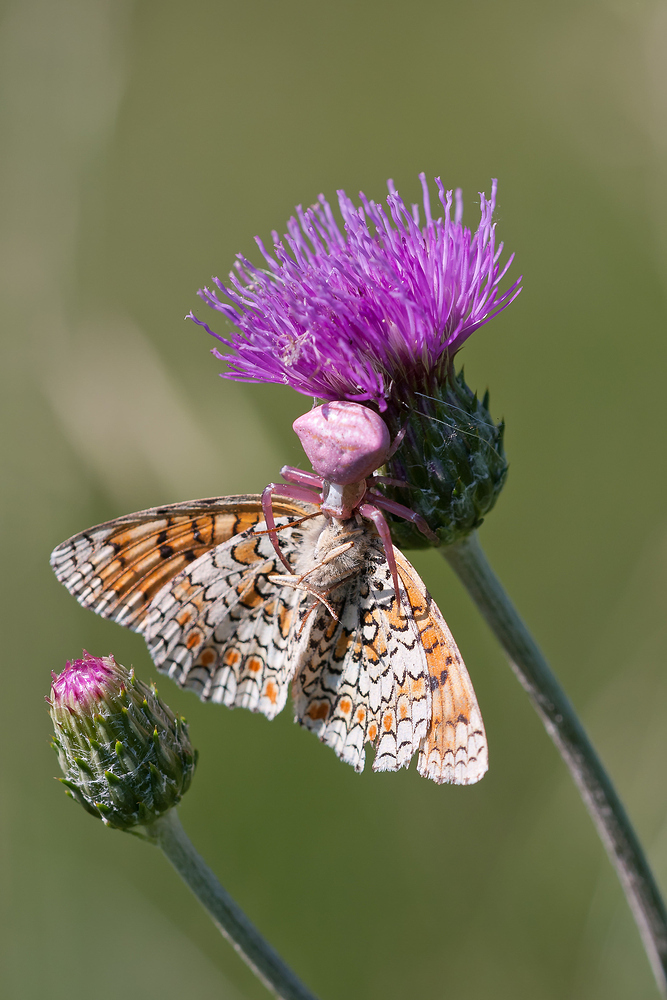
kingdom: Animalia
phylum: Arthropoda
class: Arachnida
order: Araneae
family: Thomisidae
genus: Thomisus
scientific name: Thomisus onustus
